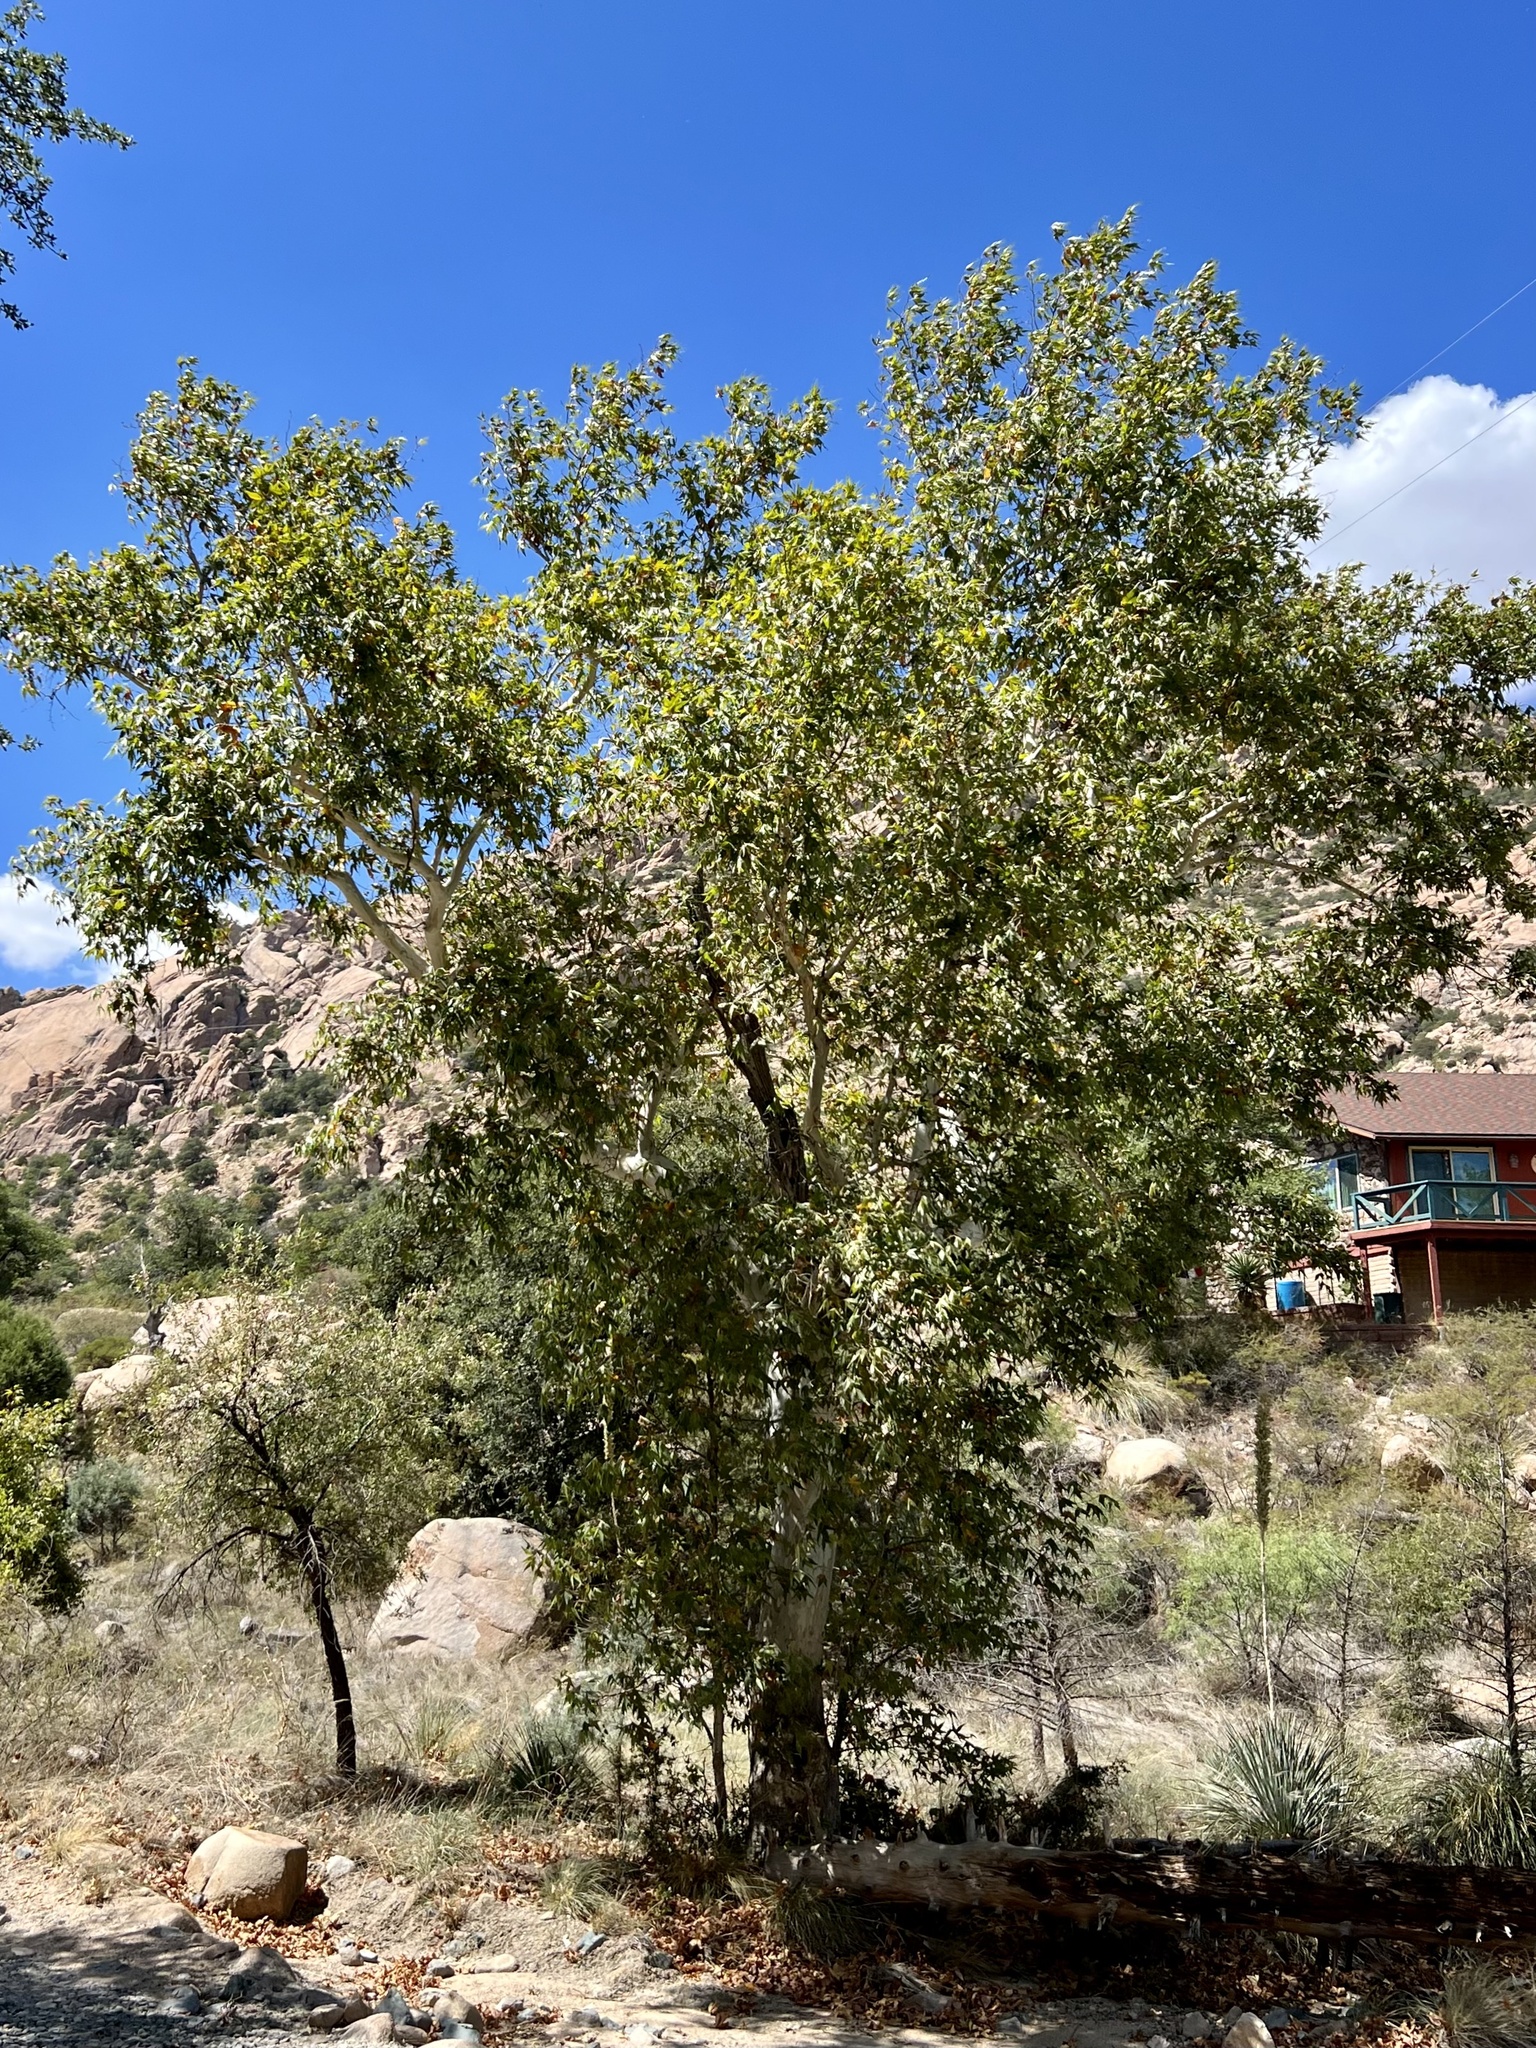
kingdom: Plantae
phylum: Tracheophyta
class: Magnoliopsida
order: Proteales
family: Platanaceae
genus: Platanus
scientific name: Platanus wrightii
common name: Arizona sycamore
